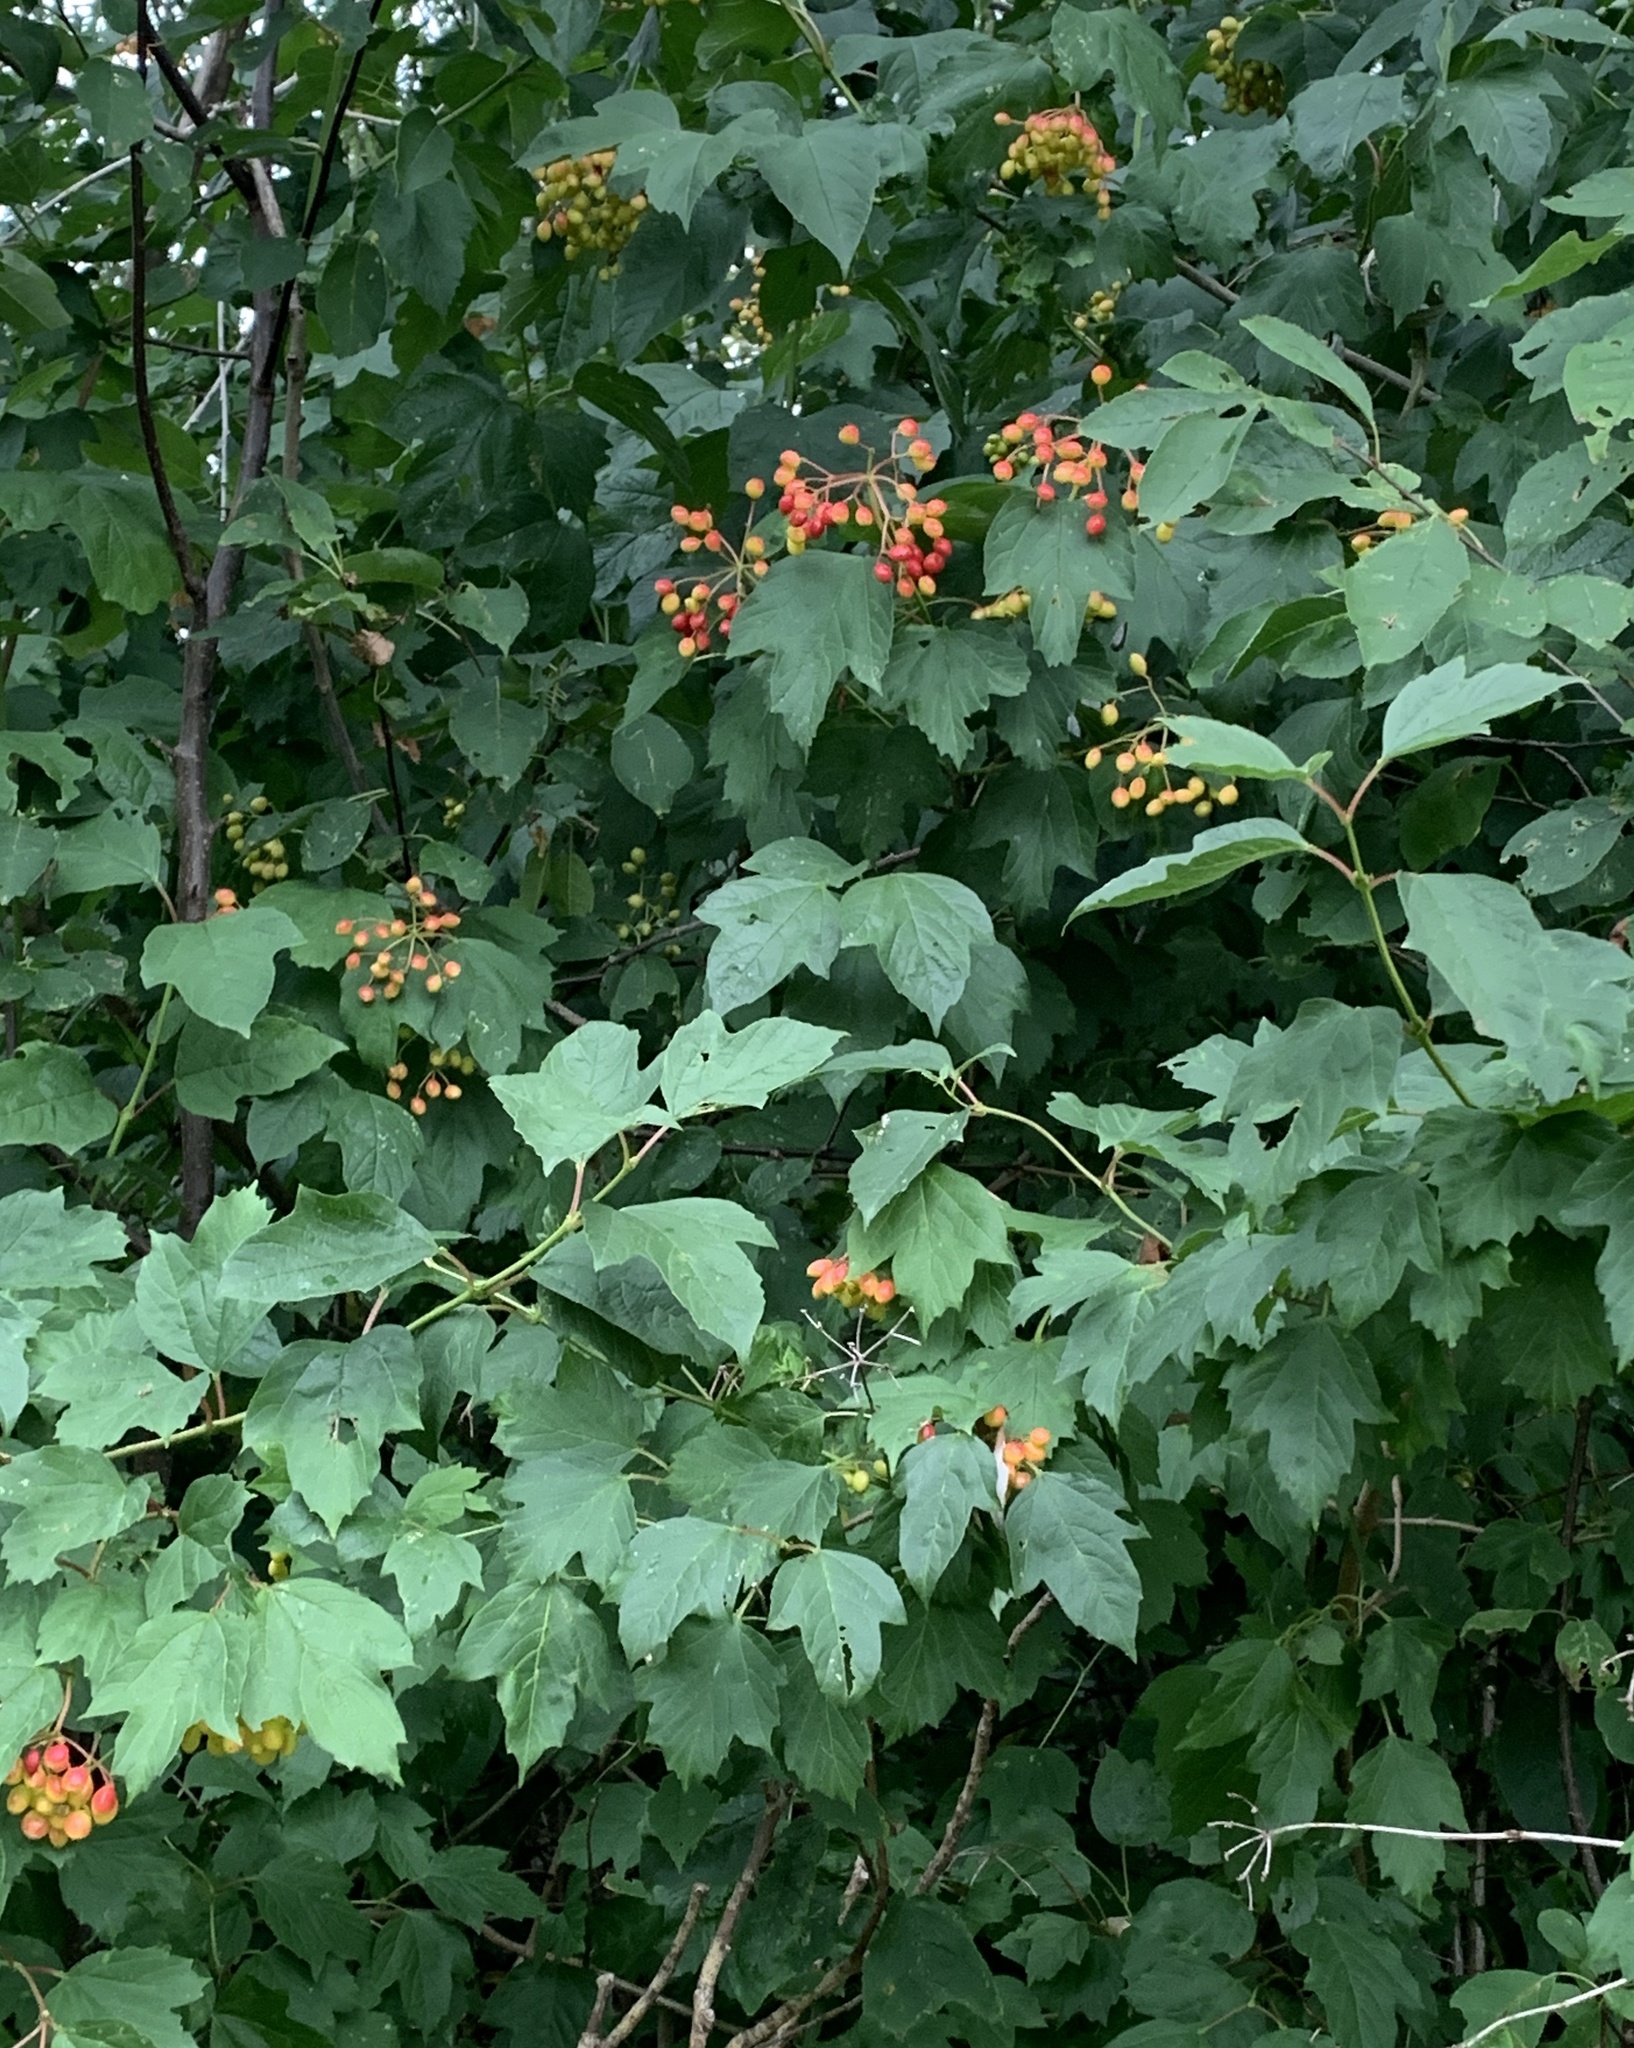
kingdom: Plantae
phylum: Tracheophyta
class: Magnoliopsida
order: Dipsacales
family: Viburnaceae
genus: Viburnum
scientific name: Viburnum opulus
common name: Guelder-rose
